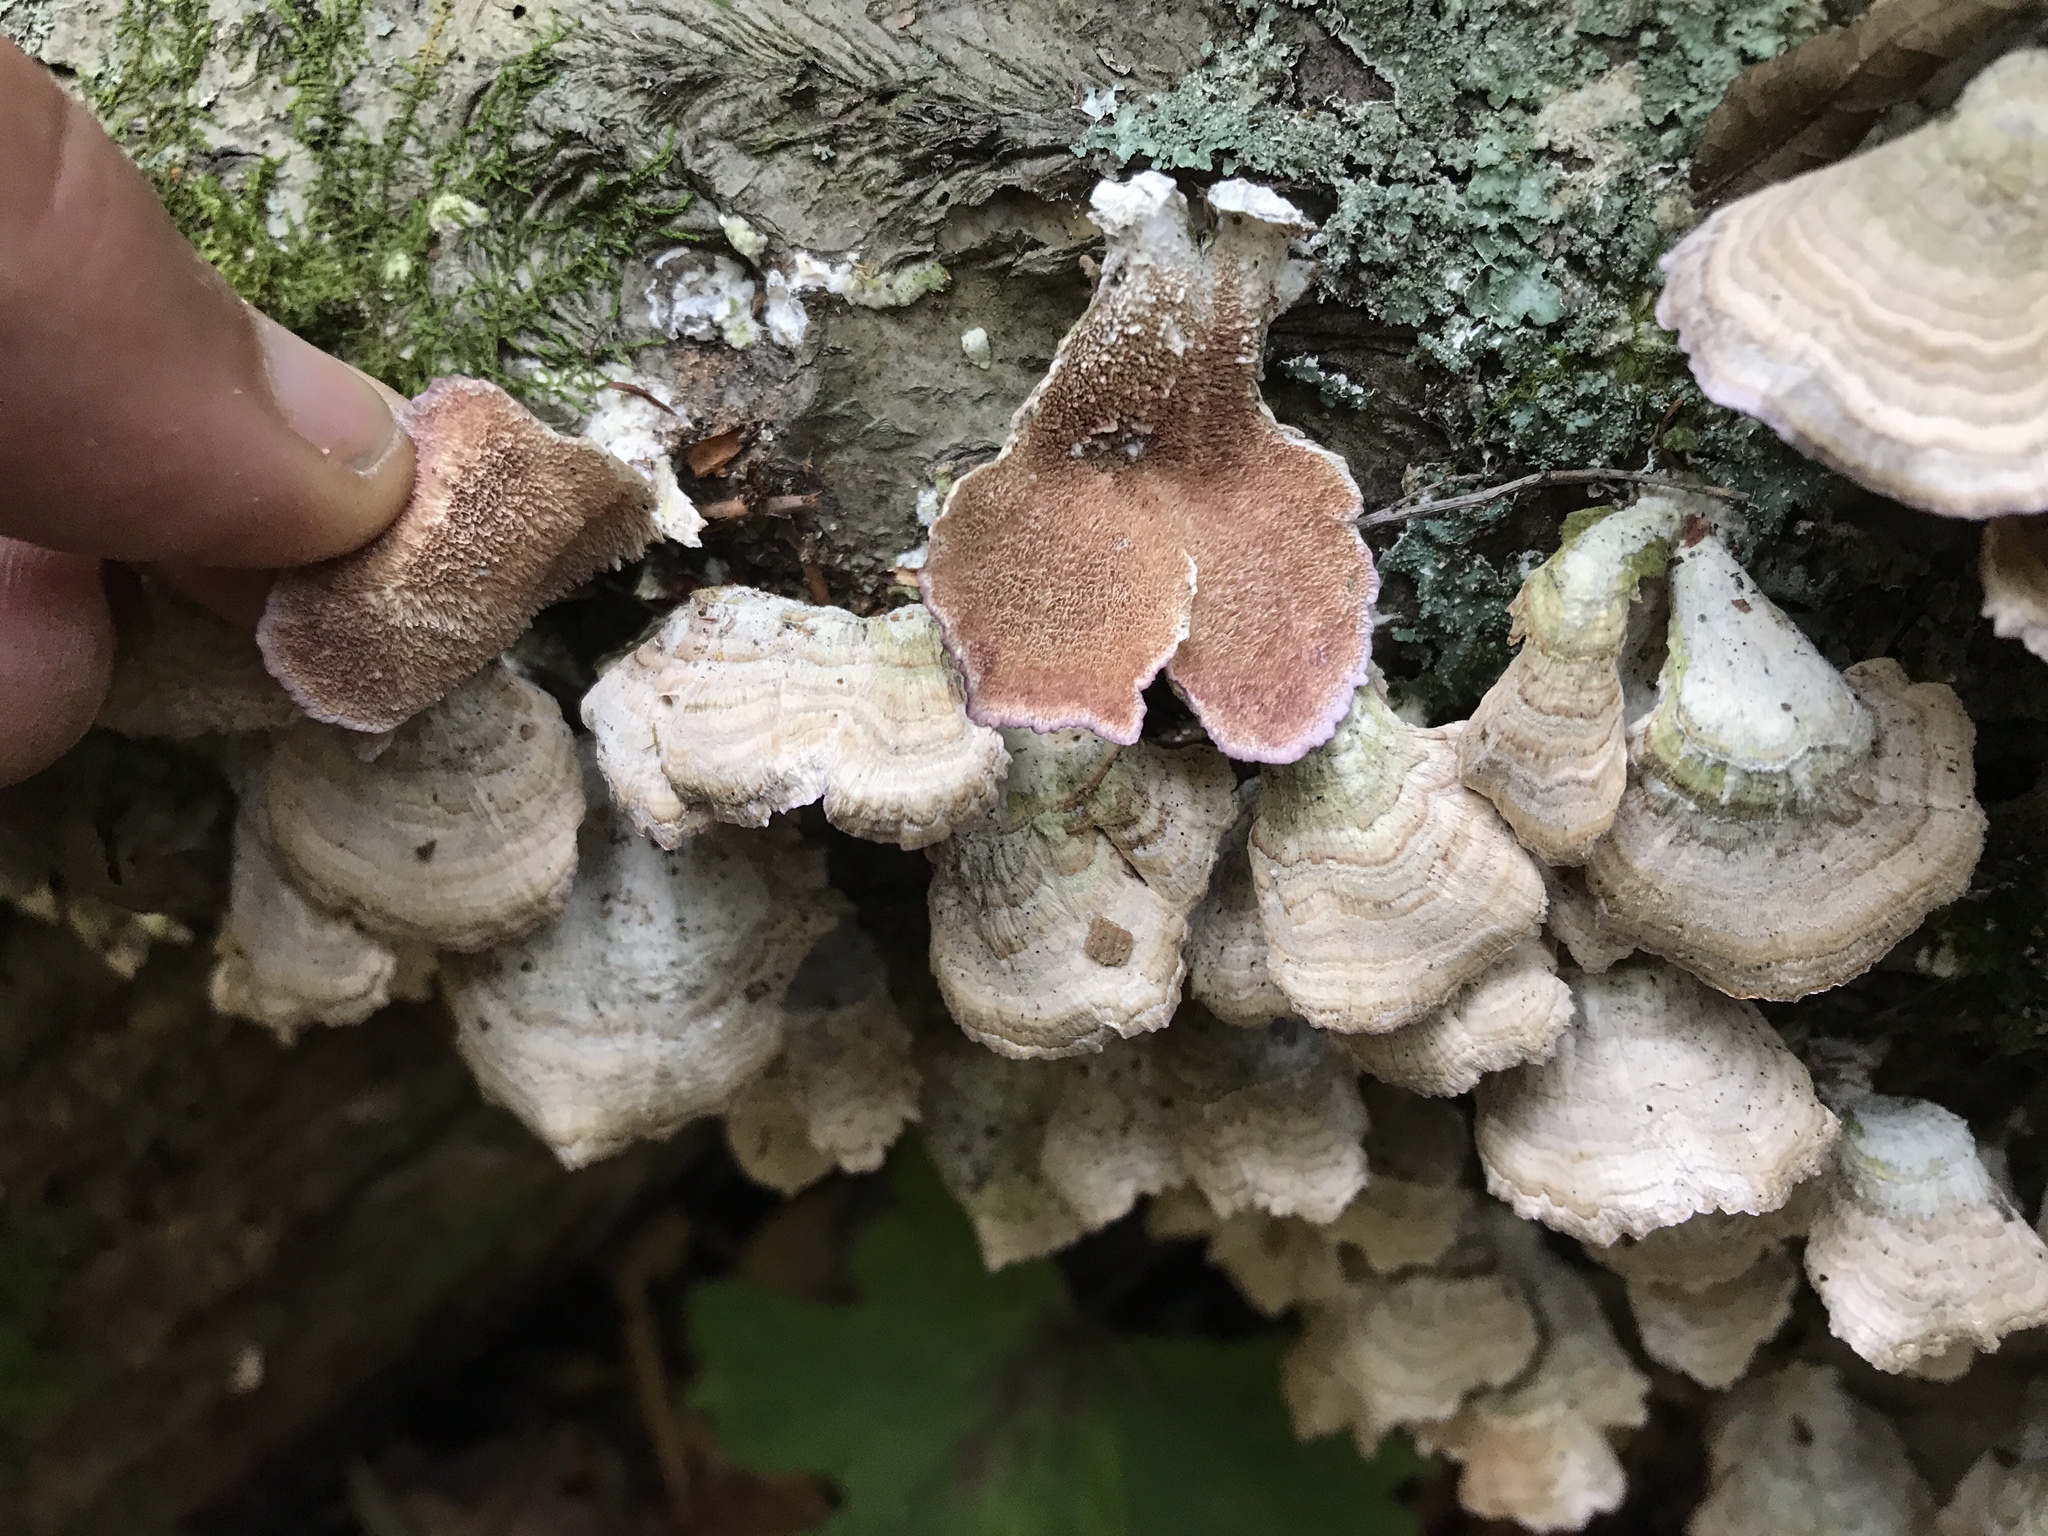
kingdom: Fungi
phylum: Basidiomycota
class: Agaricomycetes
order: Hymenochaetales
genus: Trichaptum
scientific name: Trichaptum biforme
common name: Violet-toothed polypore
